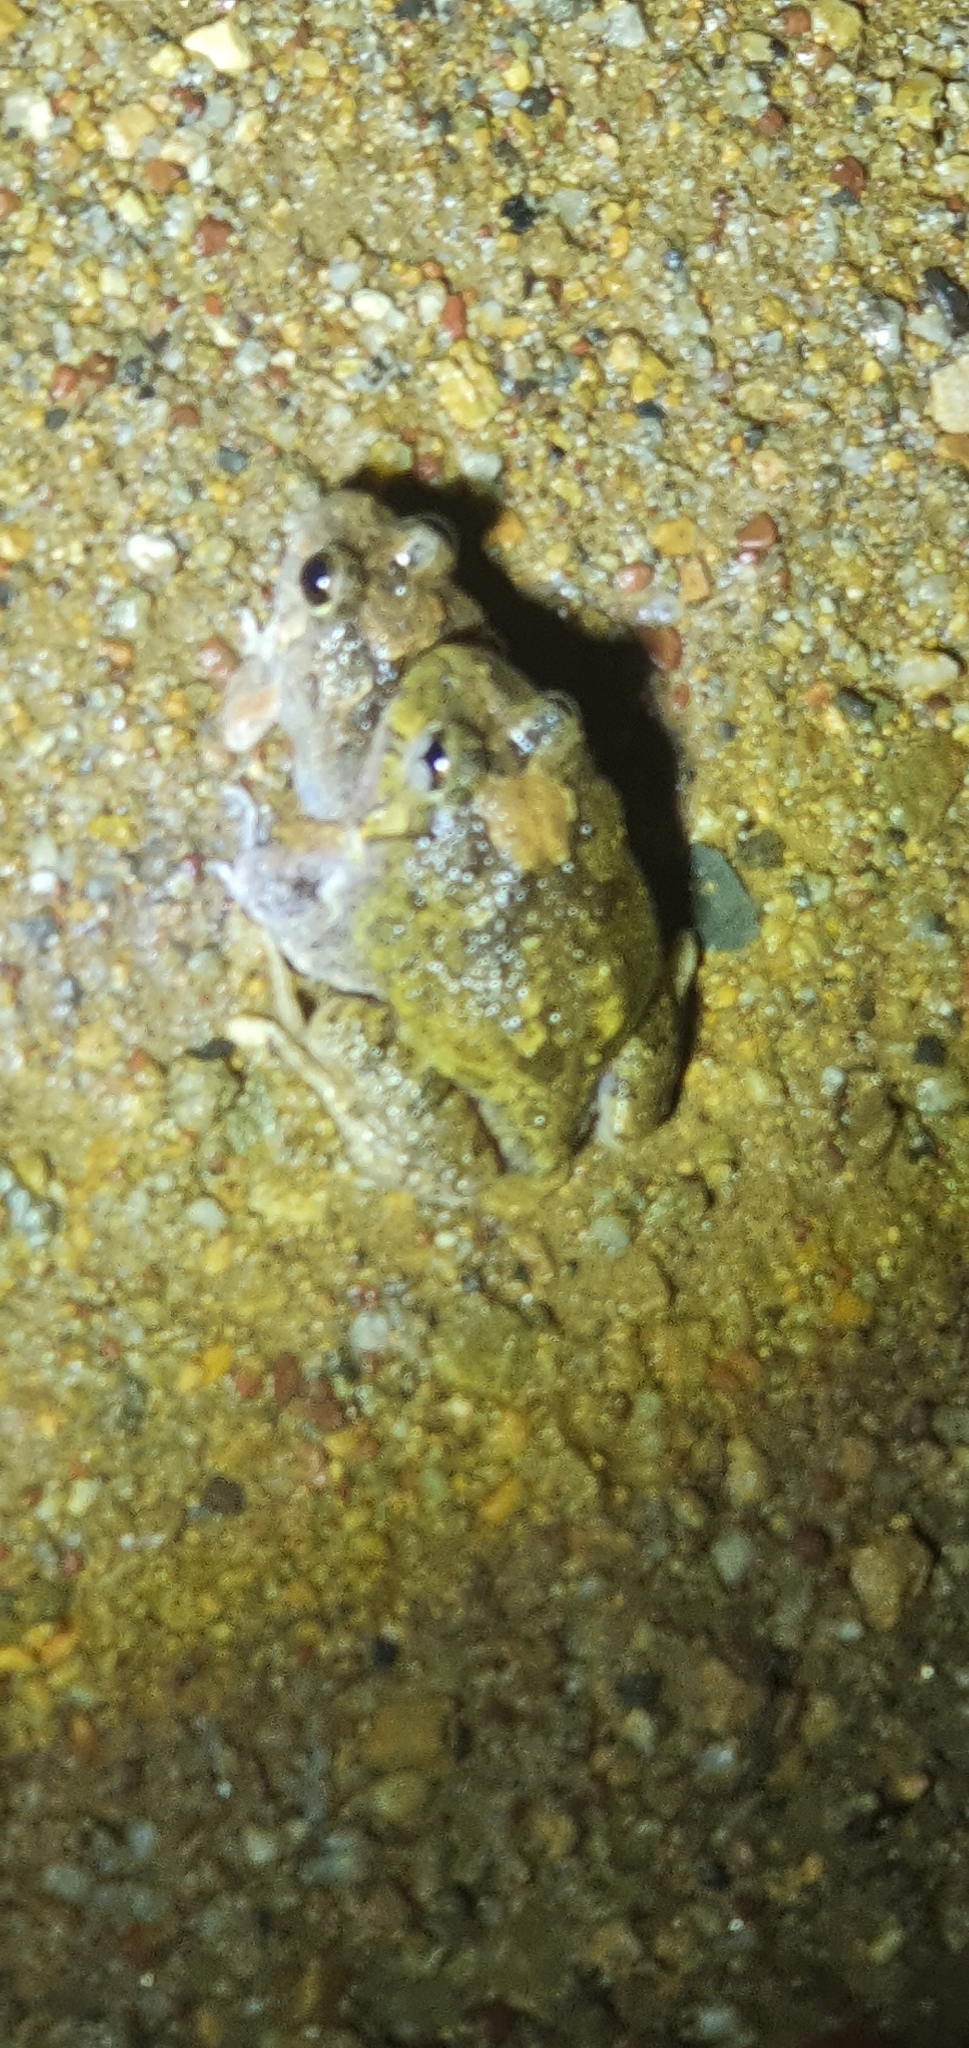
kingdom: Animalia
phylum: Chordata
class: Amphibia
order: Anura
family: Limnodynastidae
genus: Platyplectrum
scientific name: Platyplectrum ornatum
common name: Ornate burrowing frog
